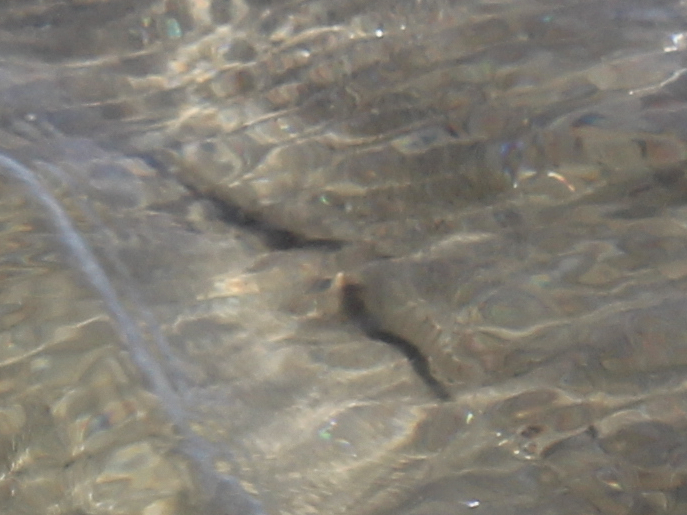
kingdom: Animalia
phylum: Chordata
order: Cyprinodontiformes
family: Fundulidae
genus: Fundulus
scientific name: Fundulus majalis
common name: Striped killifish
